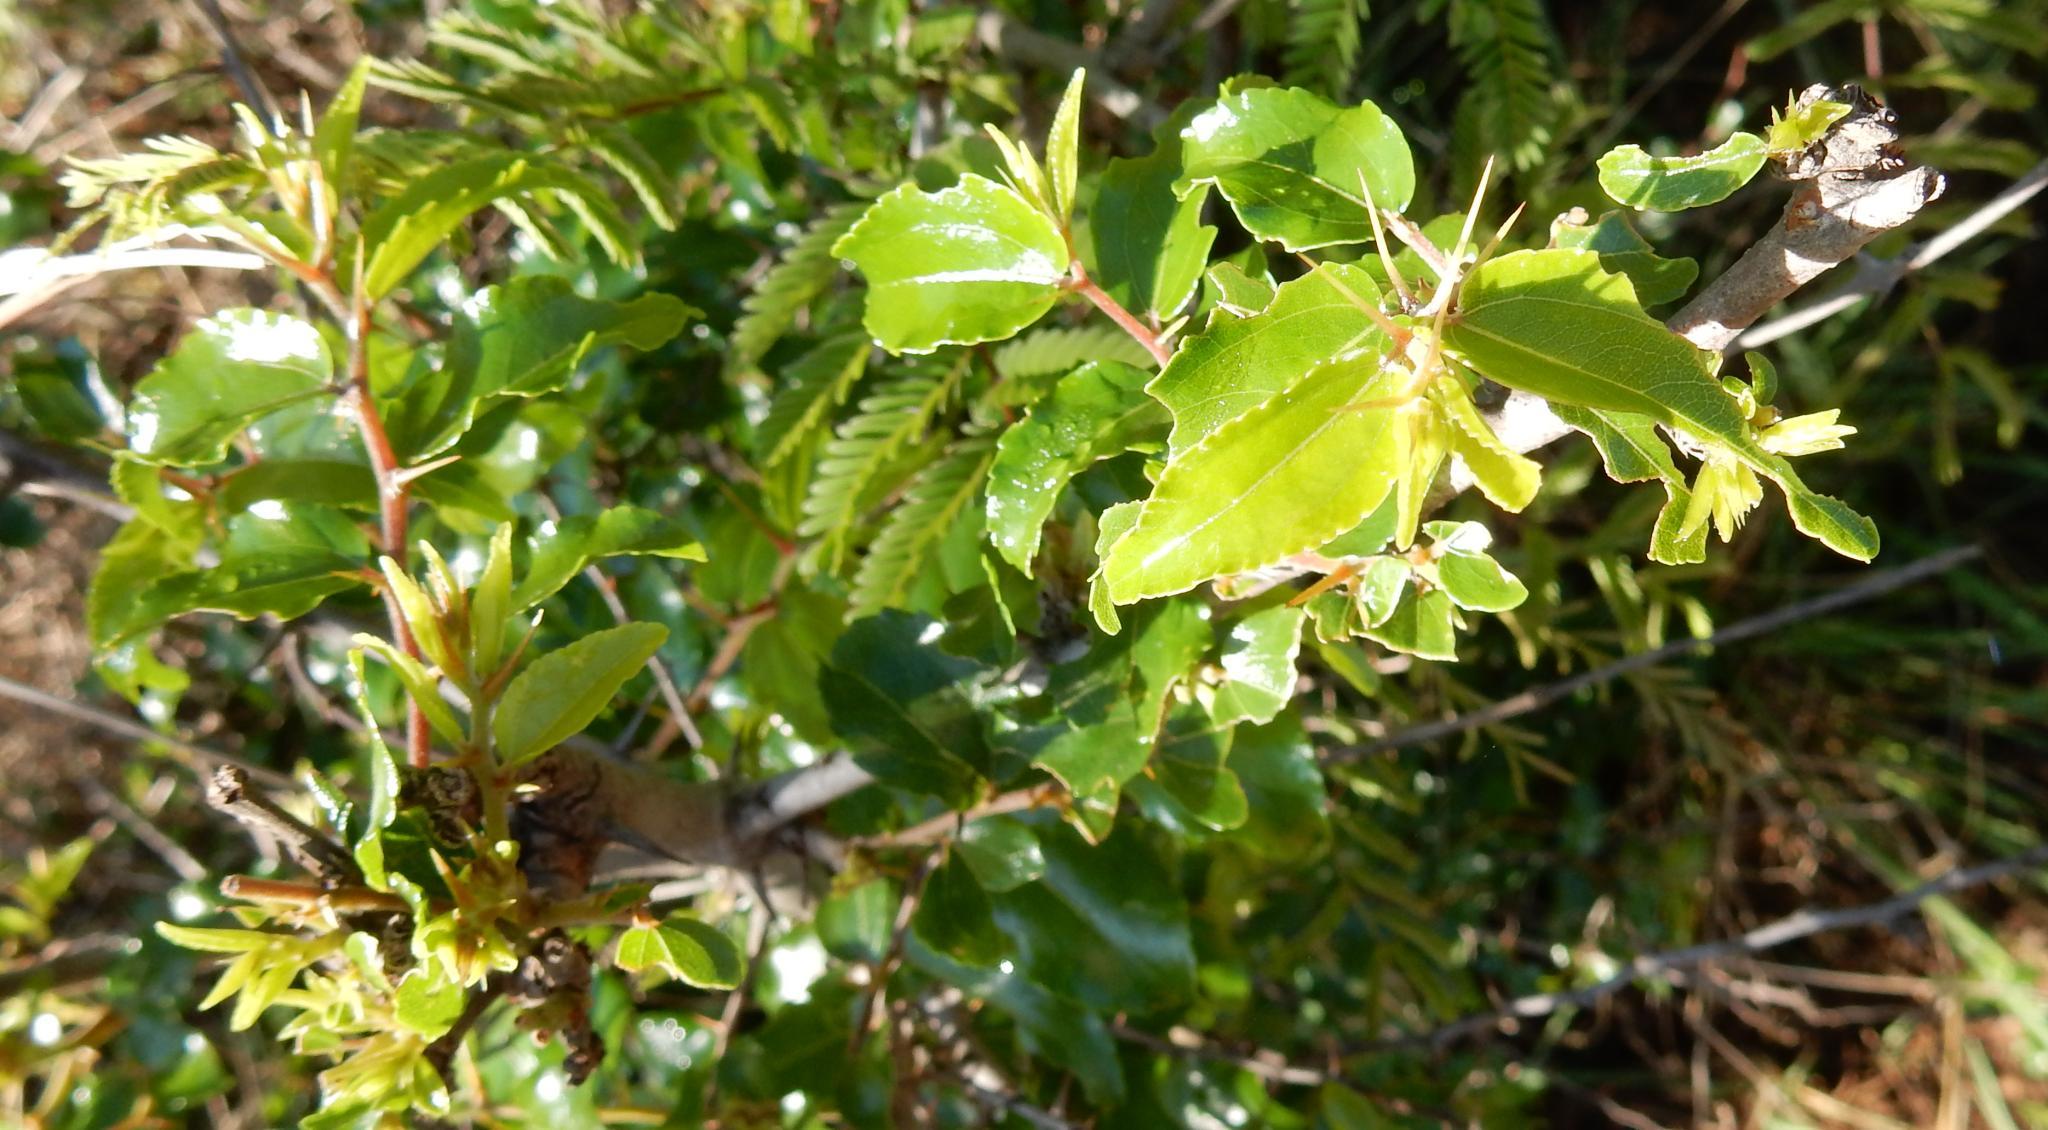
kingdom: Plantae
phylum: Tracheophyta
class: Magnoliopsida
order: Rosales
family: Rhamnaceae
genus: Ziziphus
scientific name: Ziziphus mucronata
